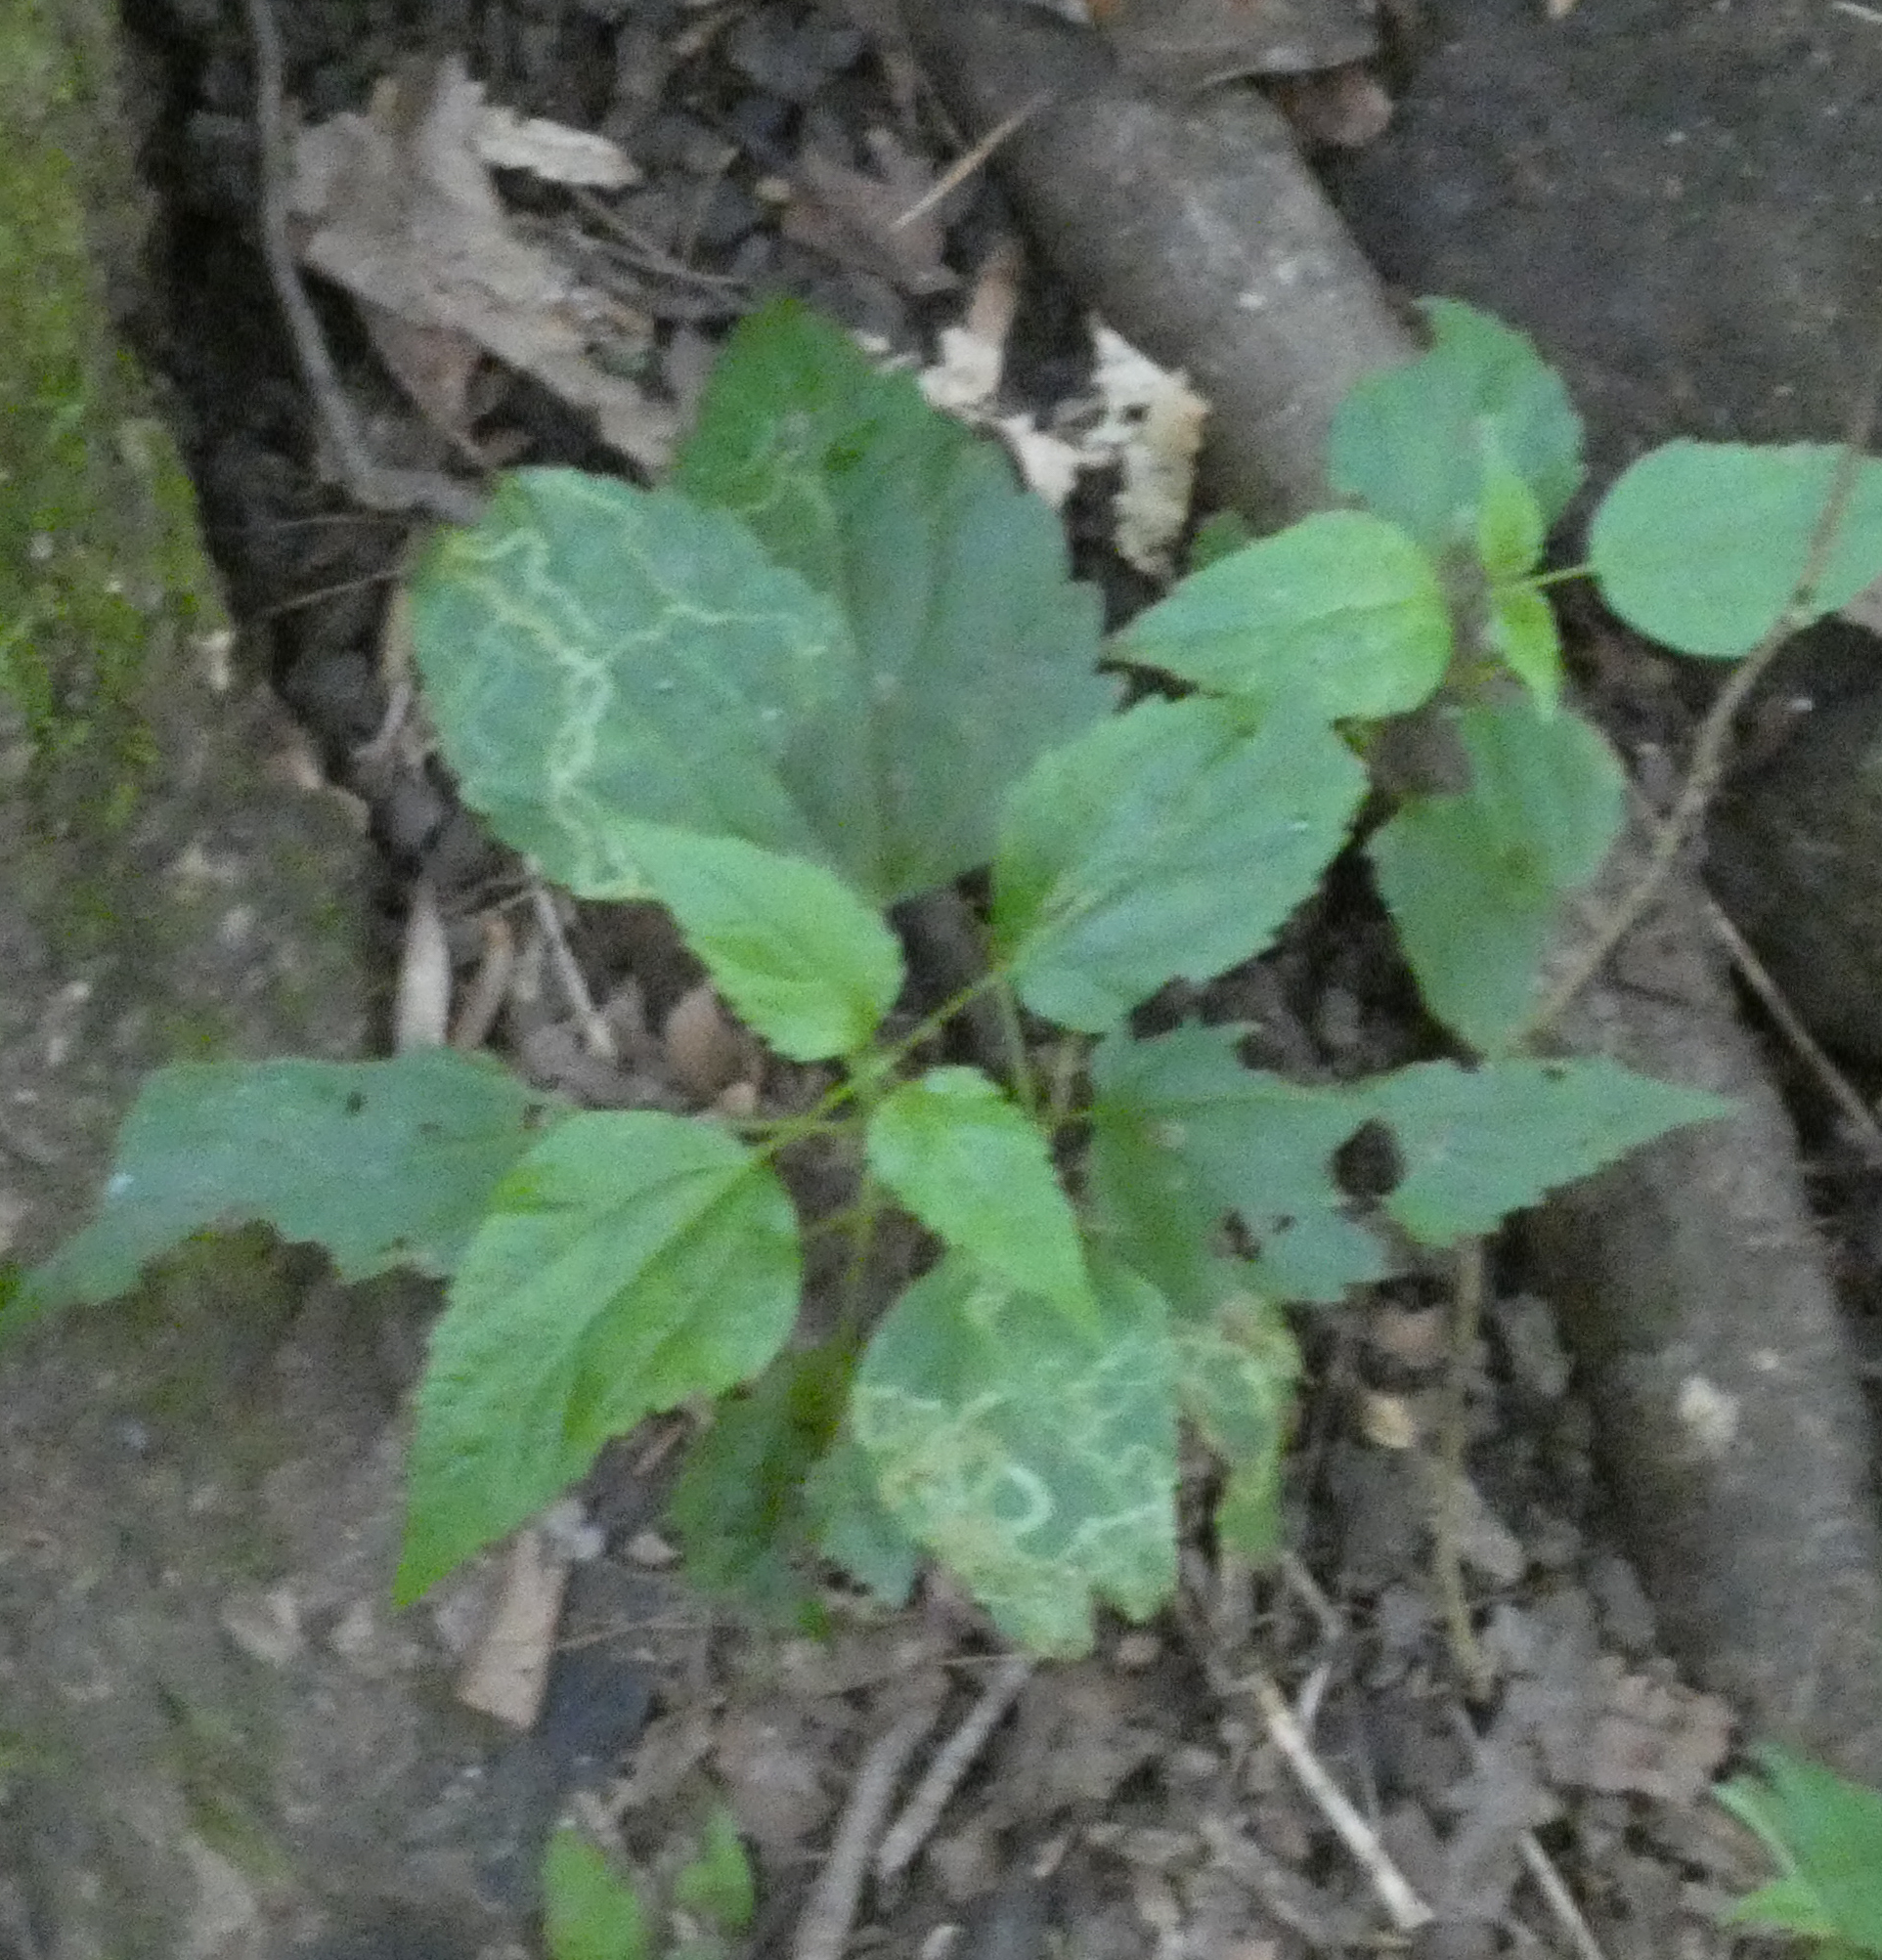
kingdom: Plantae
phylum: Tracheophyta
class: Magnoliopsida
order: Asterales
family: Asteraceae
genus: Ageratina
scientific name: Ageratina altissima
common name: White snakeroot
